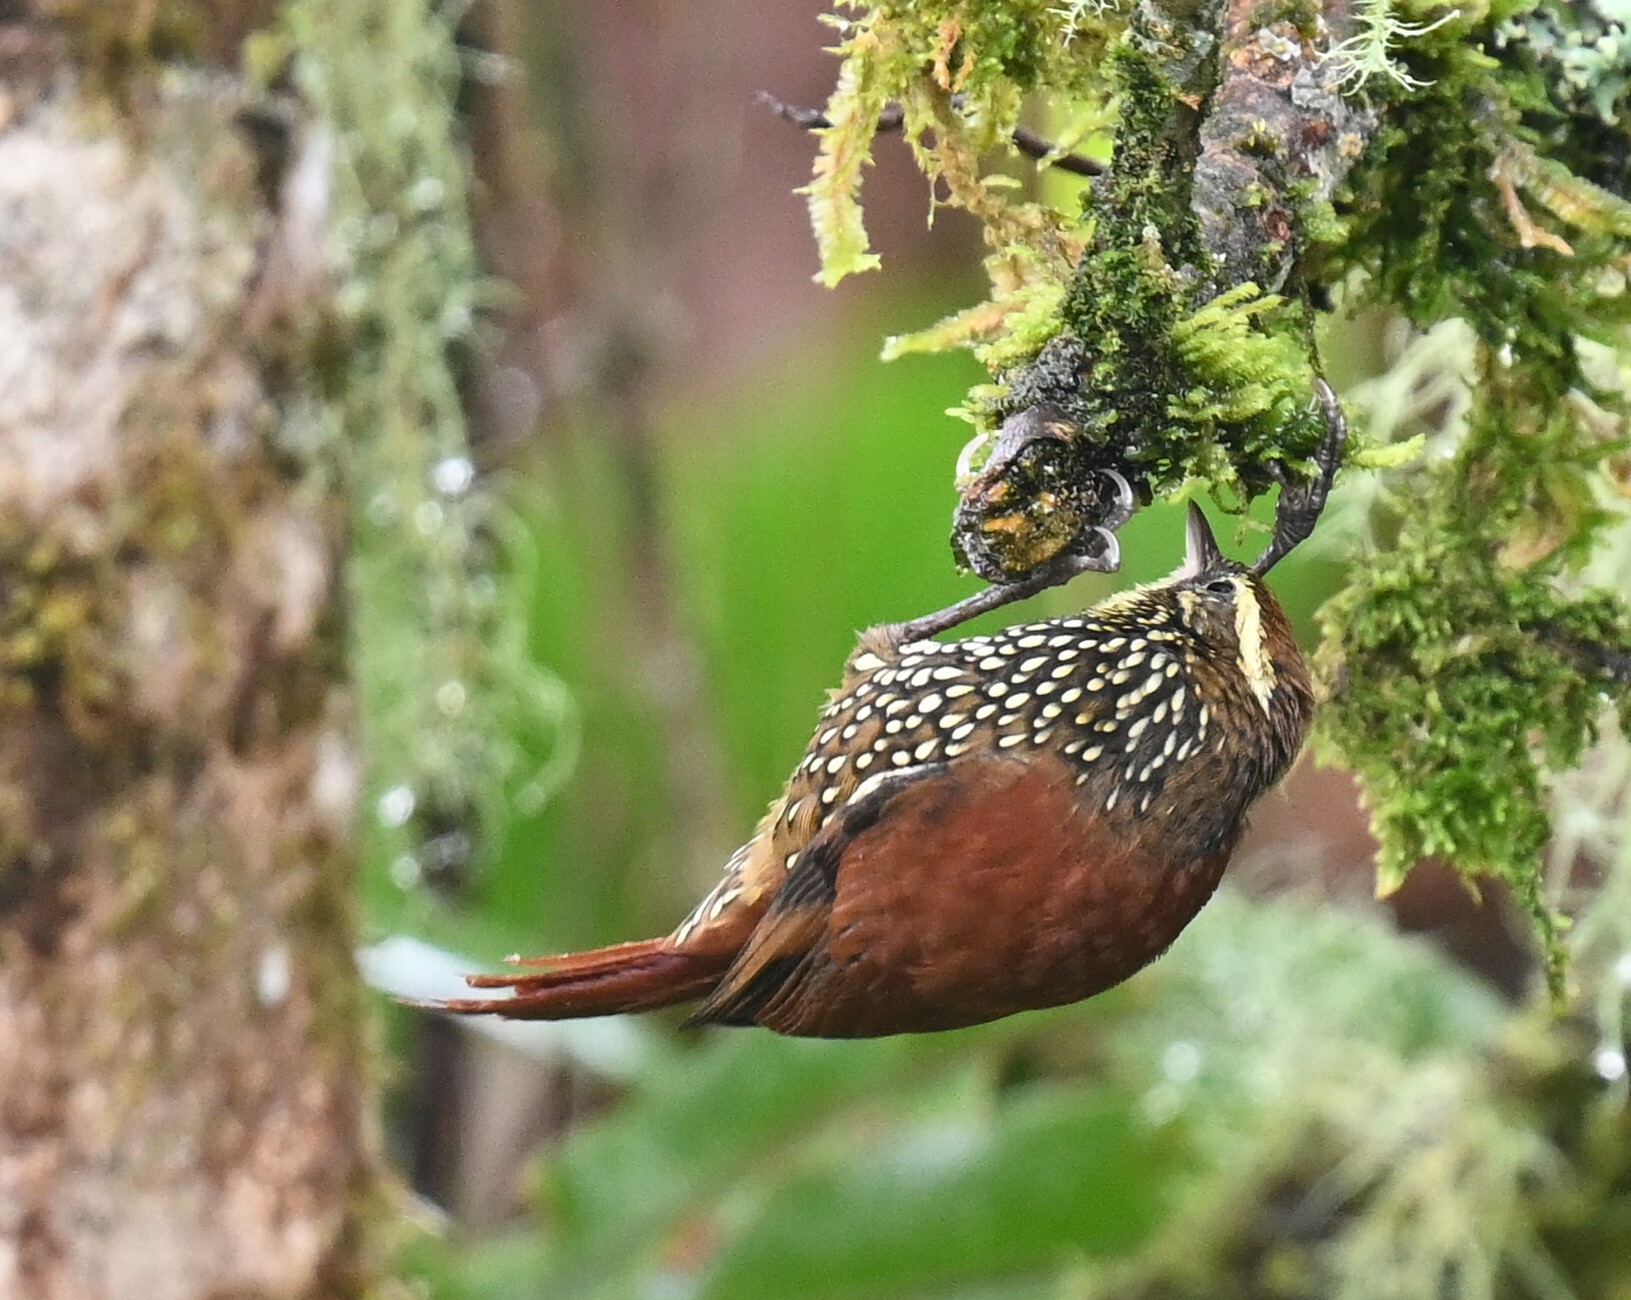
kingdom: Animalia
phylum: Chordata
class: Aves
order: Passeriformes
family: Furnariidae
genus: Margarornis
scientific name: Margarornis squamiger
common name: Pearled treerunner
